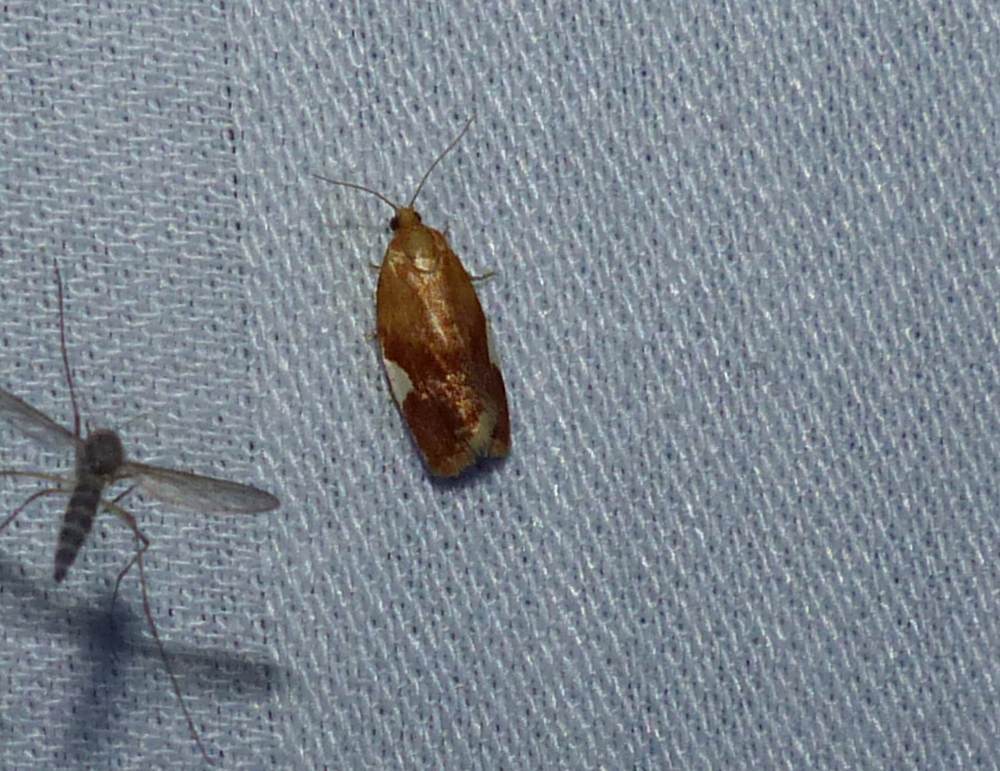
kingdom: Animalia
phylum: Arthropoda
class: Insecta
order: Lepidoptera
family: Tortricidae
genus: Clepsis
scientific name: Clepsis persicana
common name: White triangle tortrix
